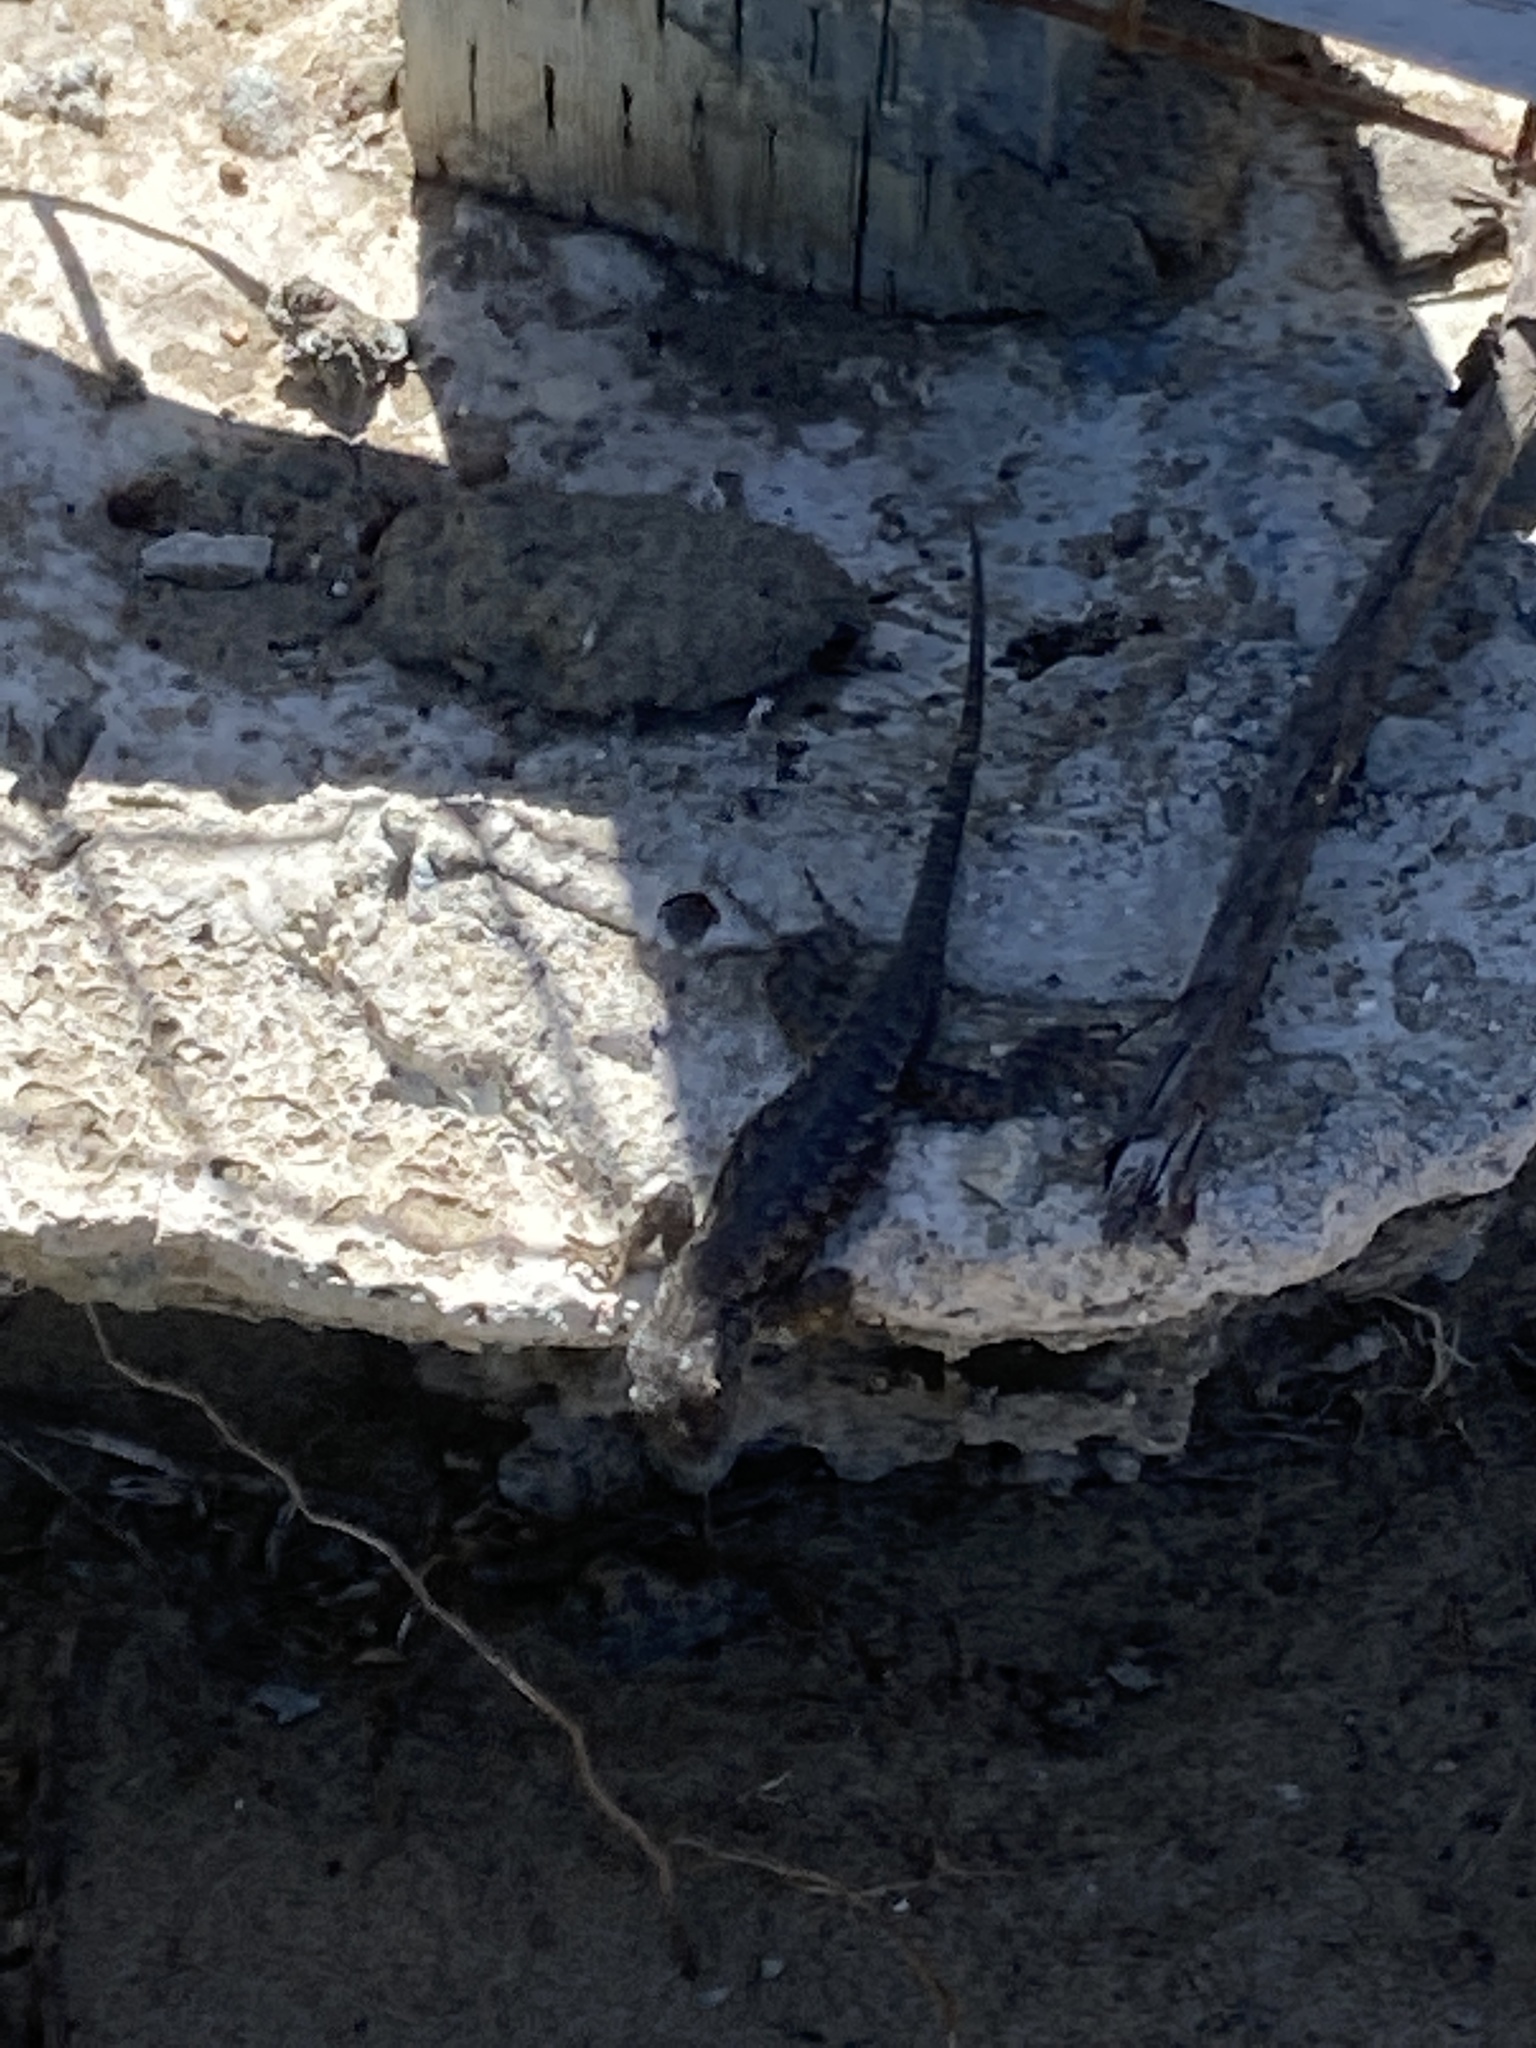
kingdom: Animalia
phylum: Chordata
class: Squamata
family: Phrynosomatidae
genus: Sceloporus
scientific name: Sceloporus occidentalis
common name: Western fence lizard
